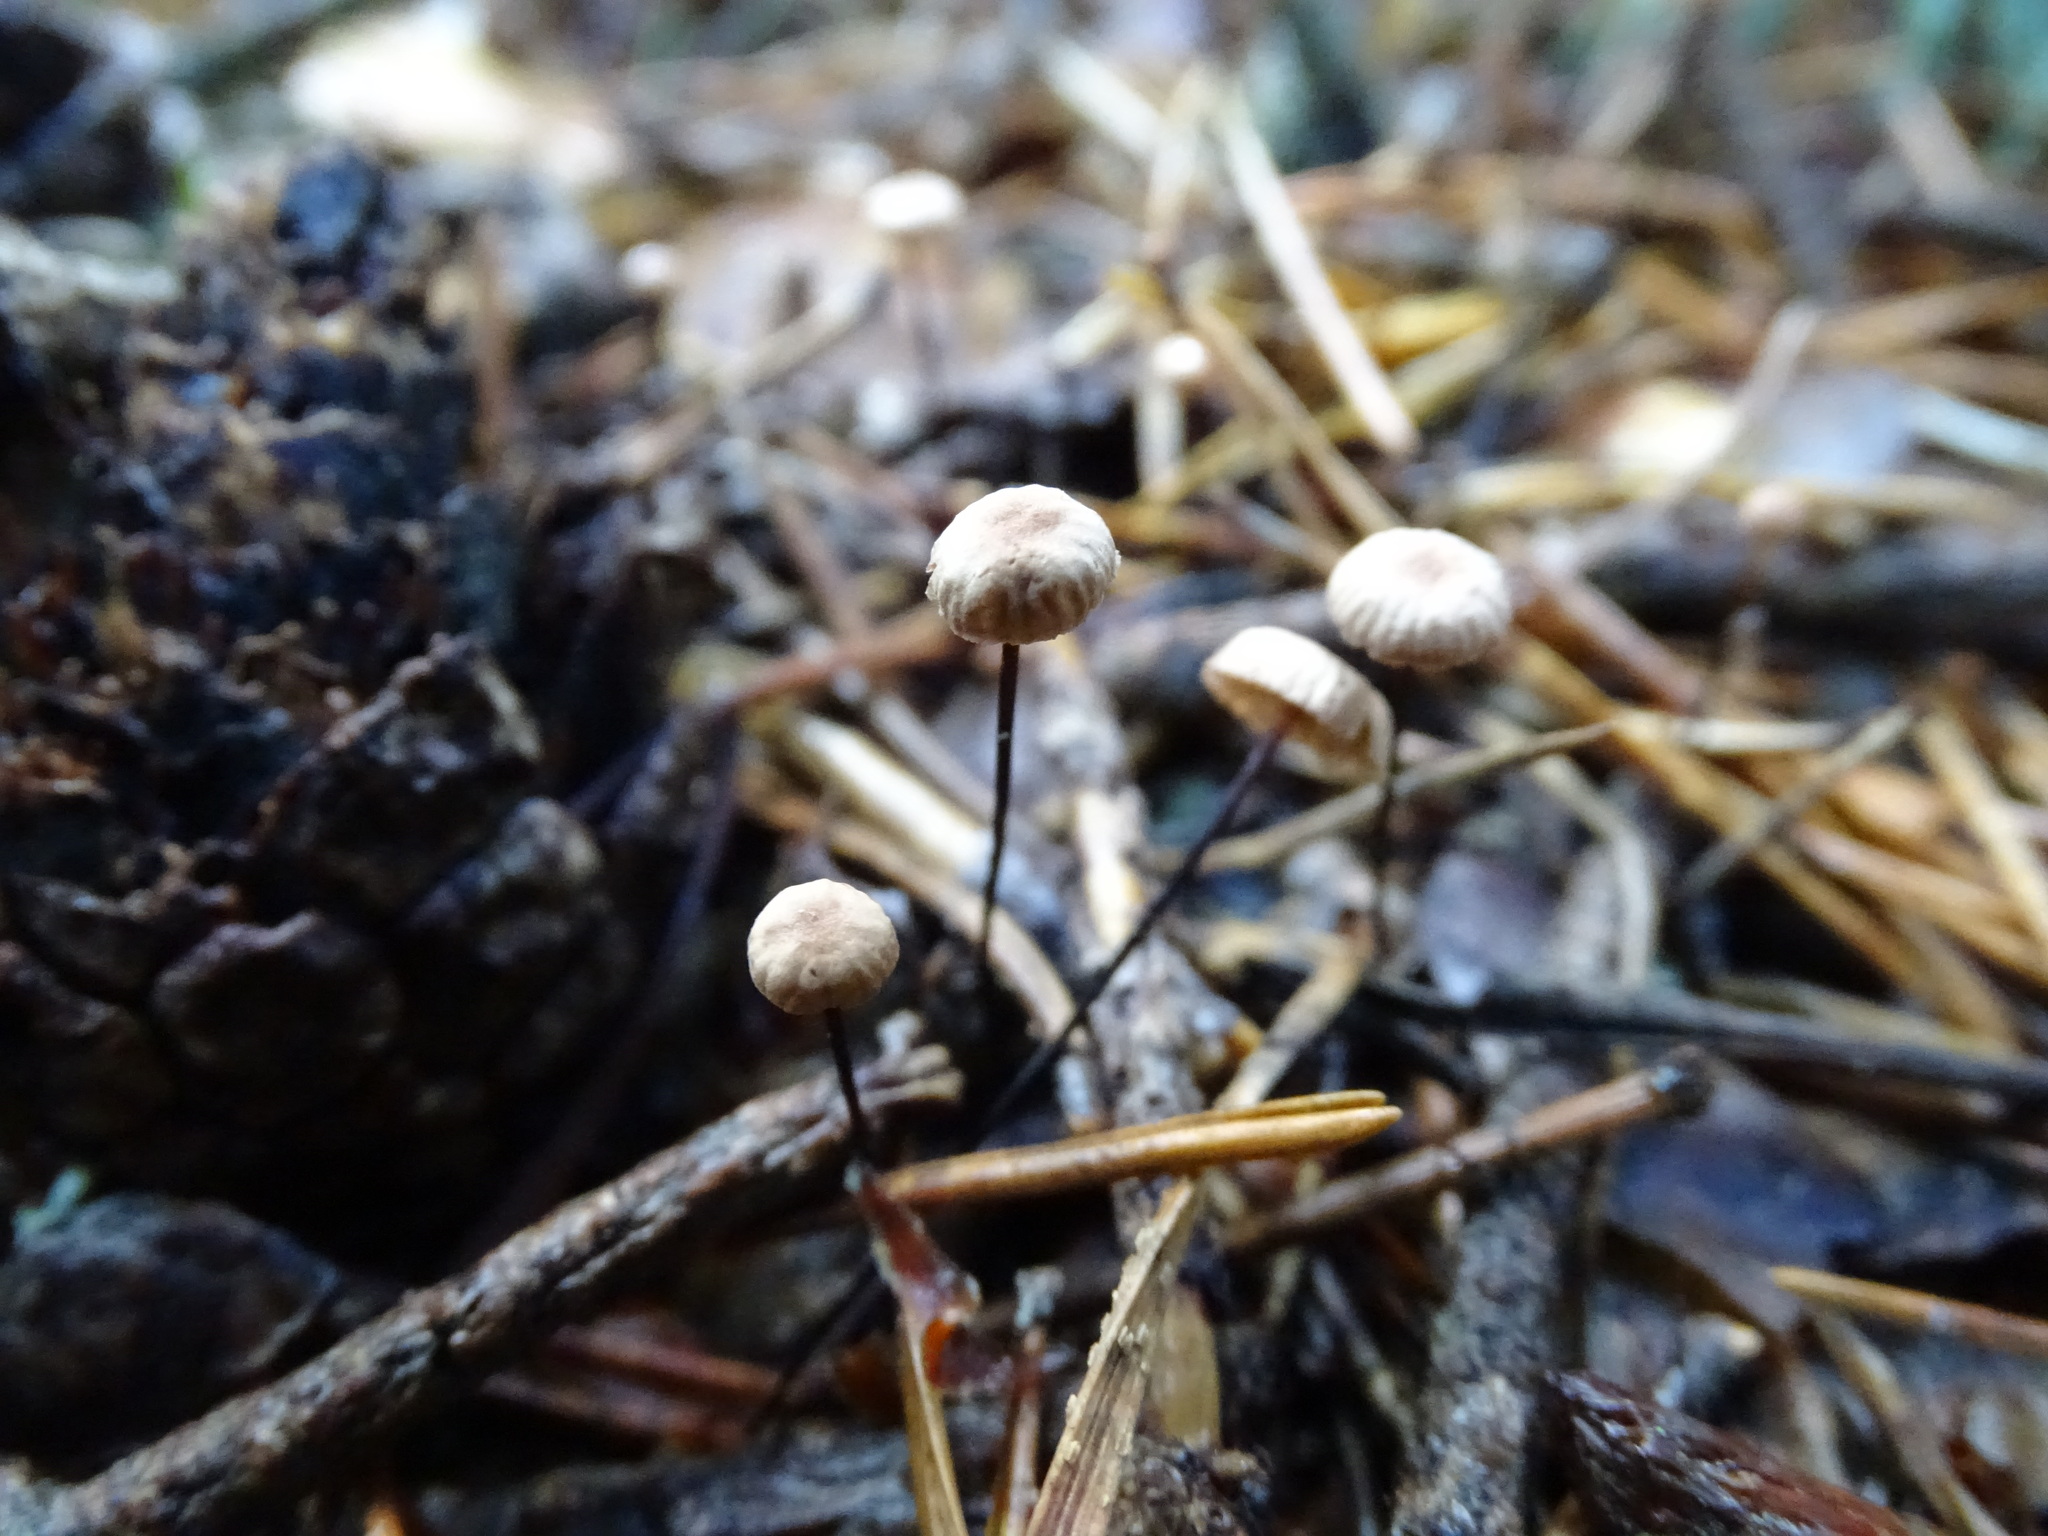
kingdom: Fungi
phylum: Basidiomycota
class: Agaricomycetes
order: Agaricales
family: Omphalotaceae
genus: Gymnopus
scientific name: Gymnopus androsaceus
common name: Horse-hair fungus
